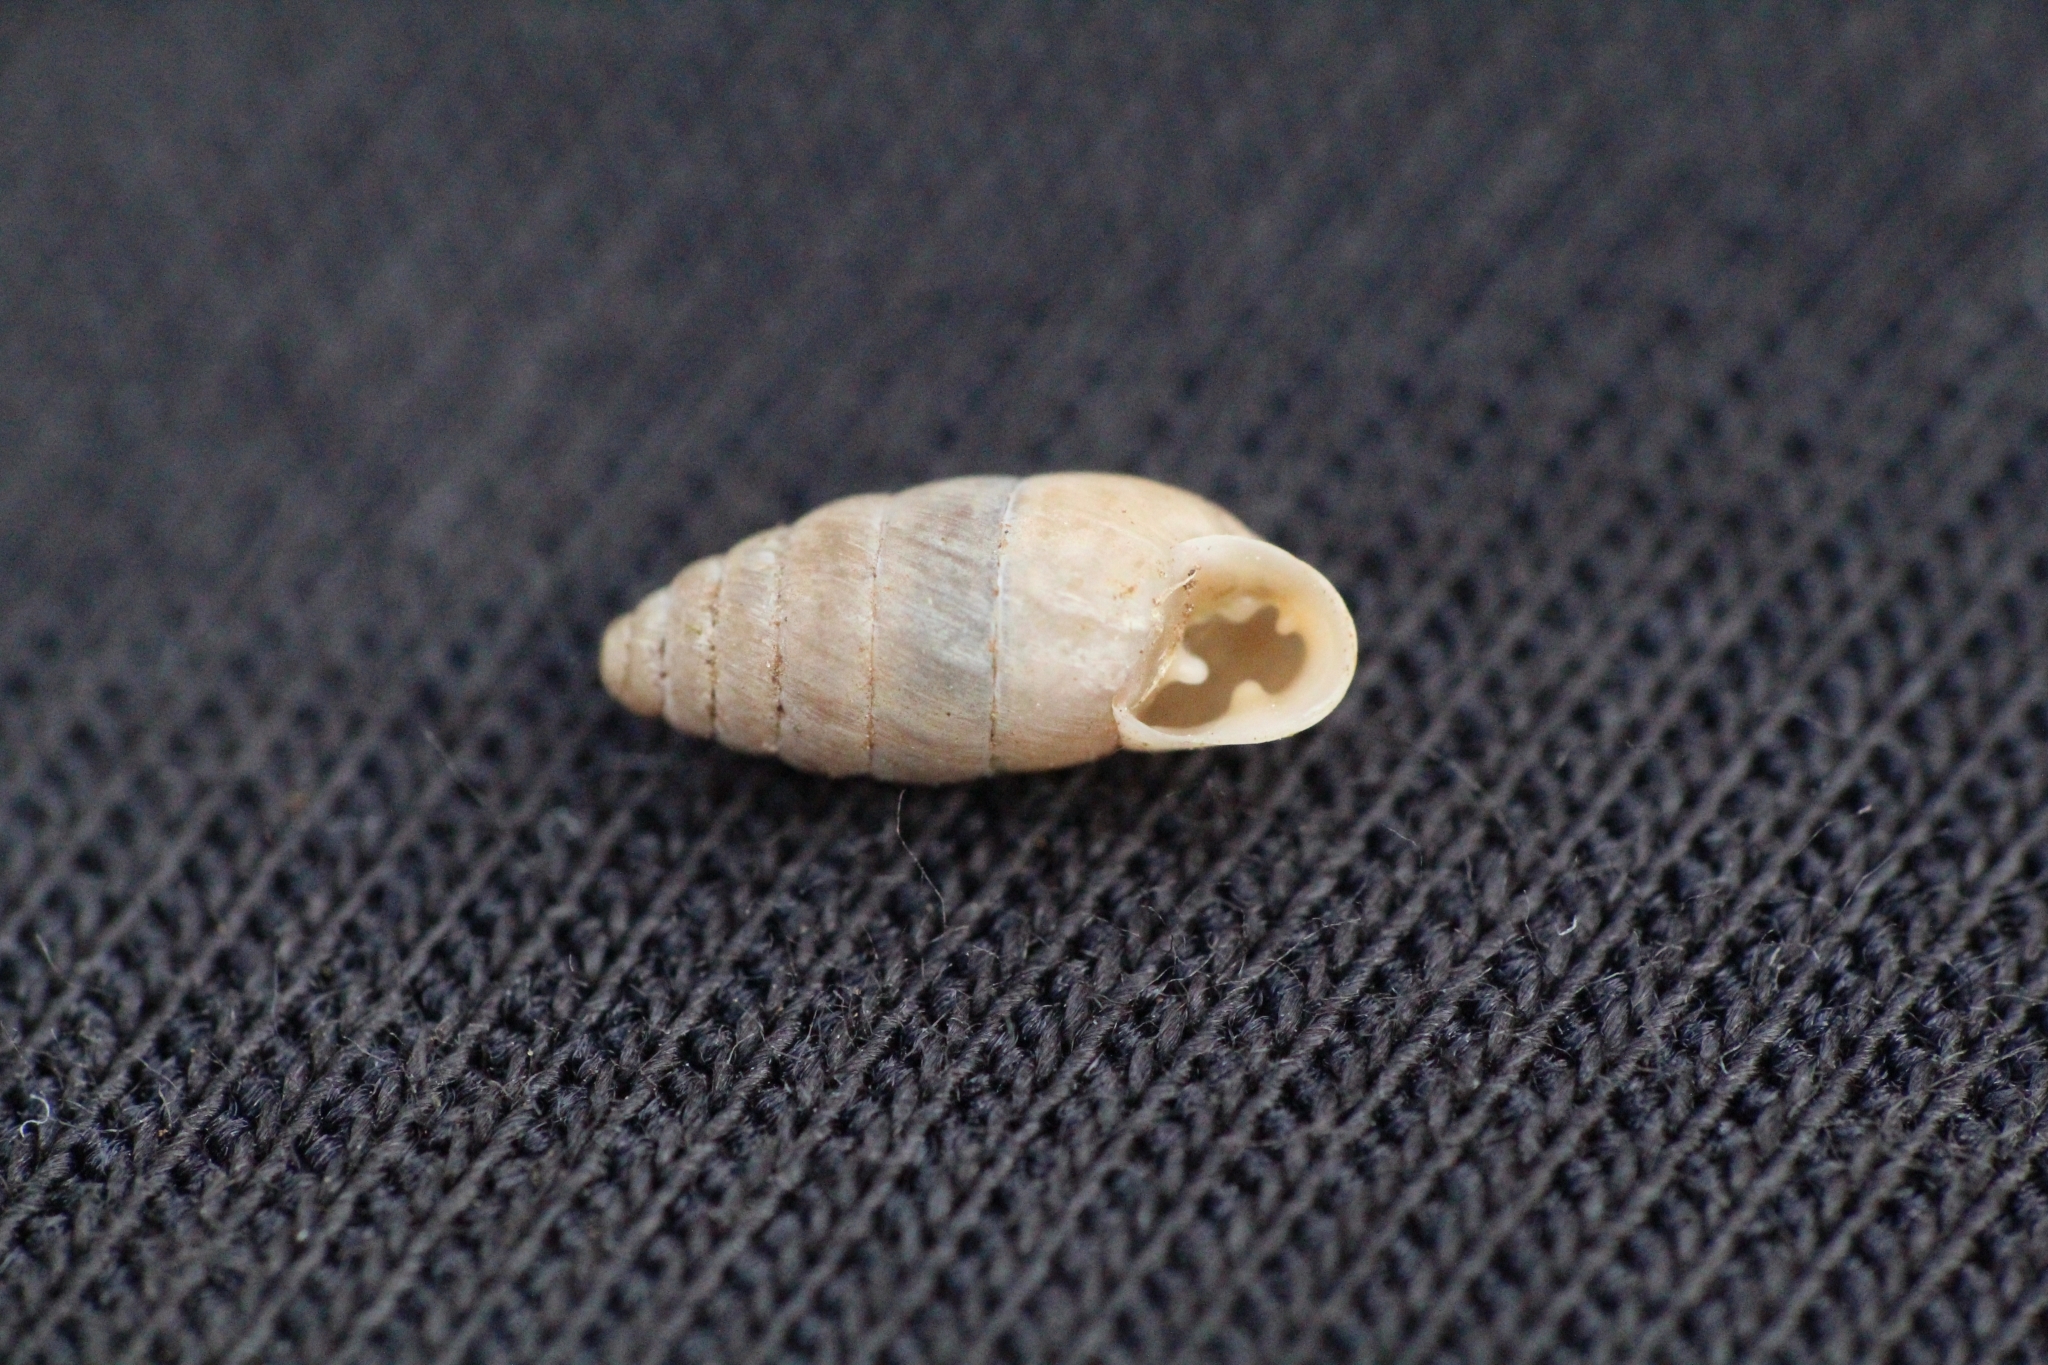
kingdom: Animalia
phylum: Mollusca
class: Gastropoda
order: Stylommatophora
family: Enidae
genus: Jaminia
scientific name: Jaminia quadridens
